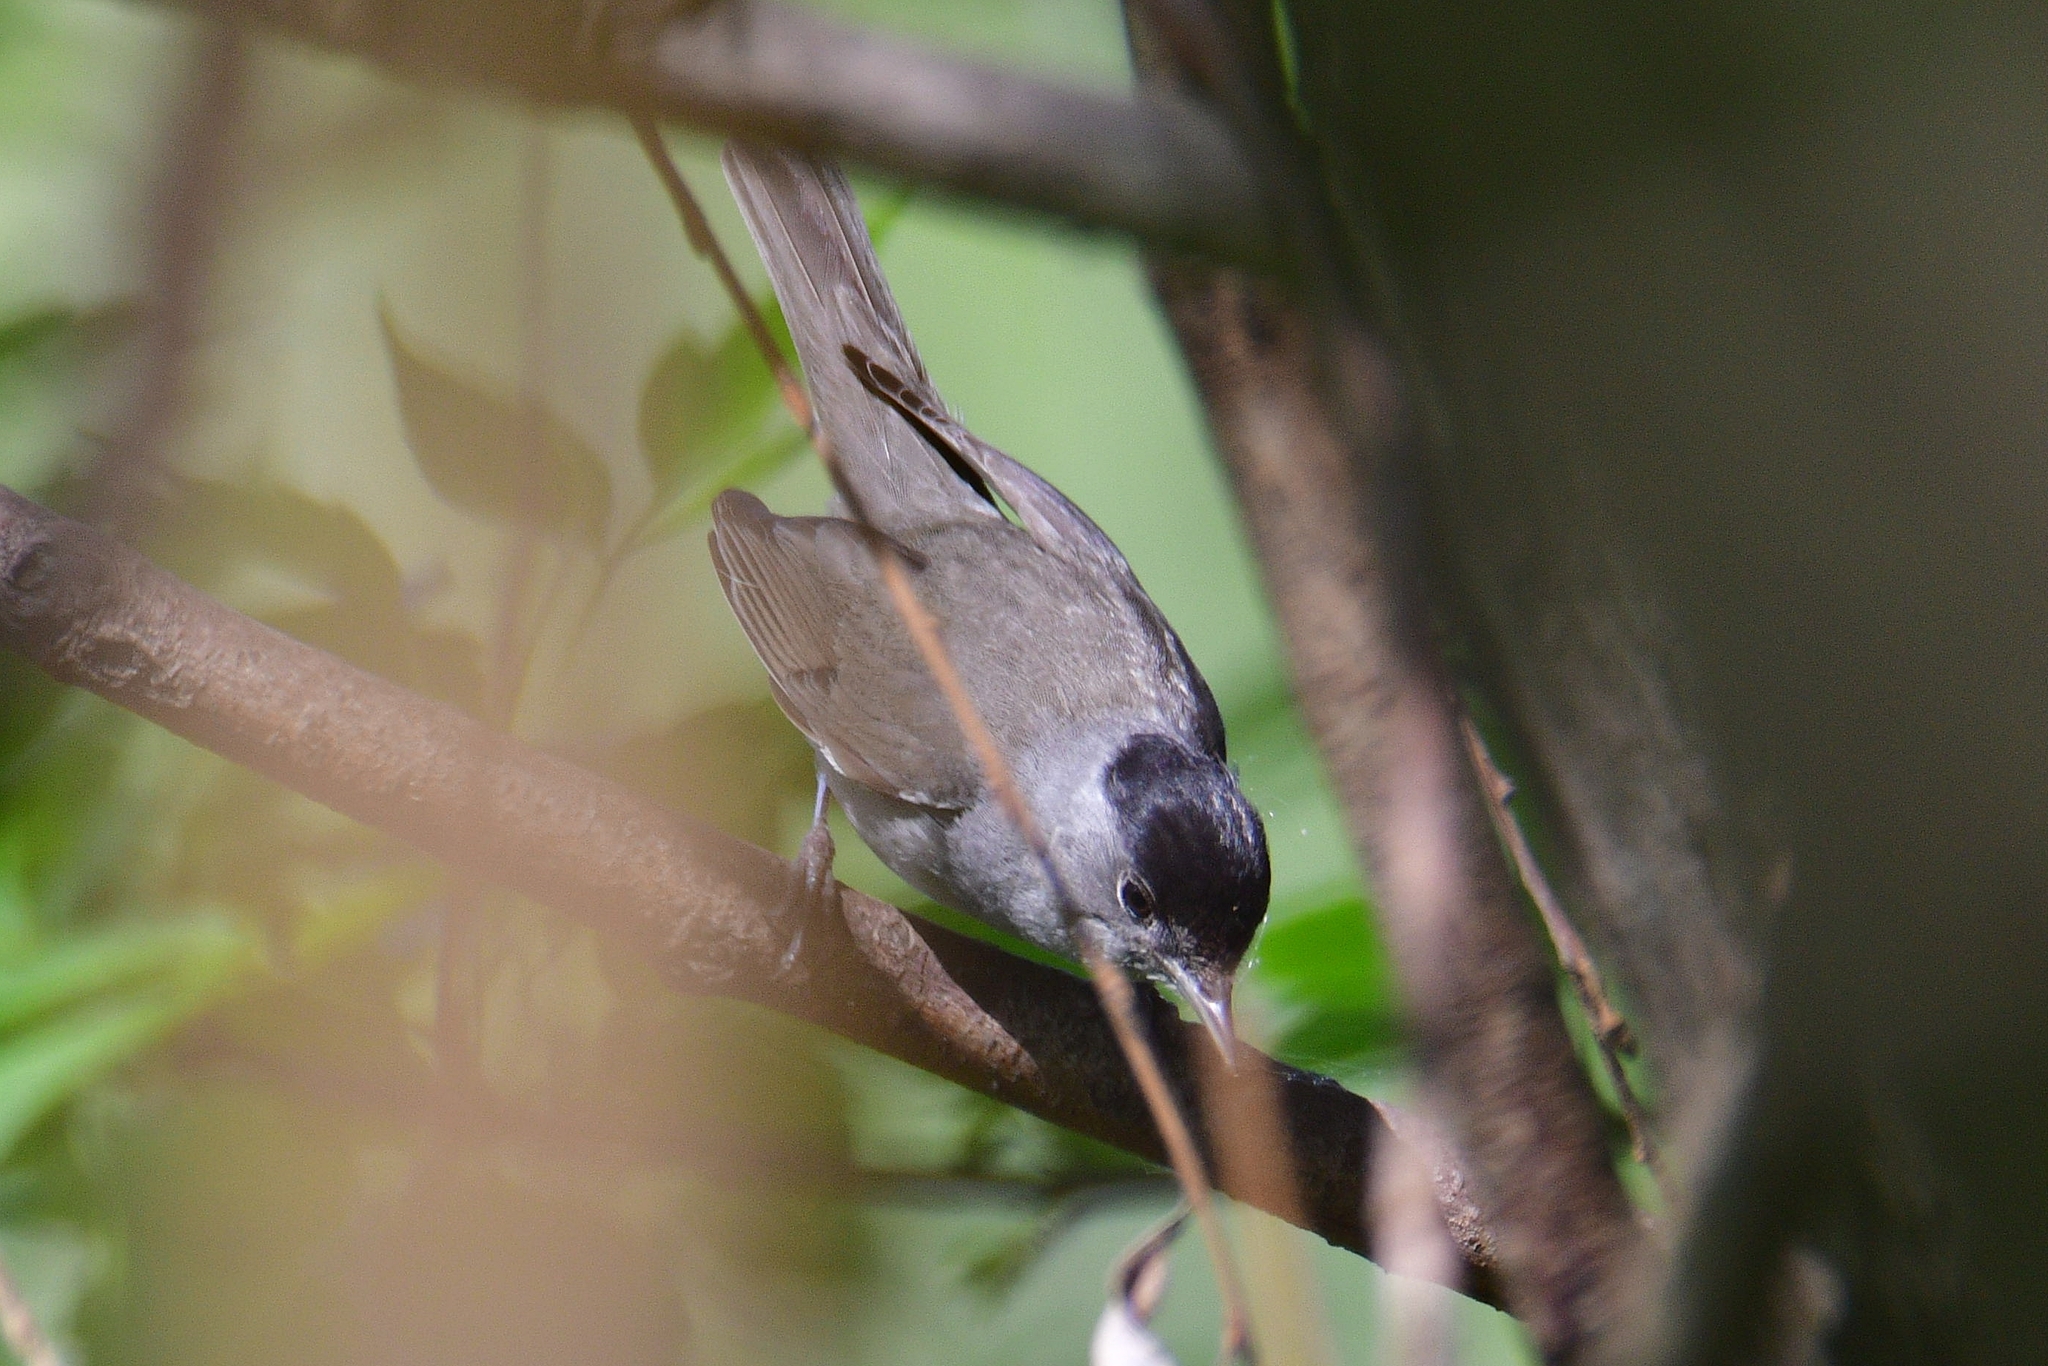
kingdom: Animalia
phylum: Chordata
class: Aves
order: Passeriformes
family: Sylviidae
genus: Sylvia
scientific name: Sylvia atricapilla
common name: Eurasian blackcap
